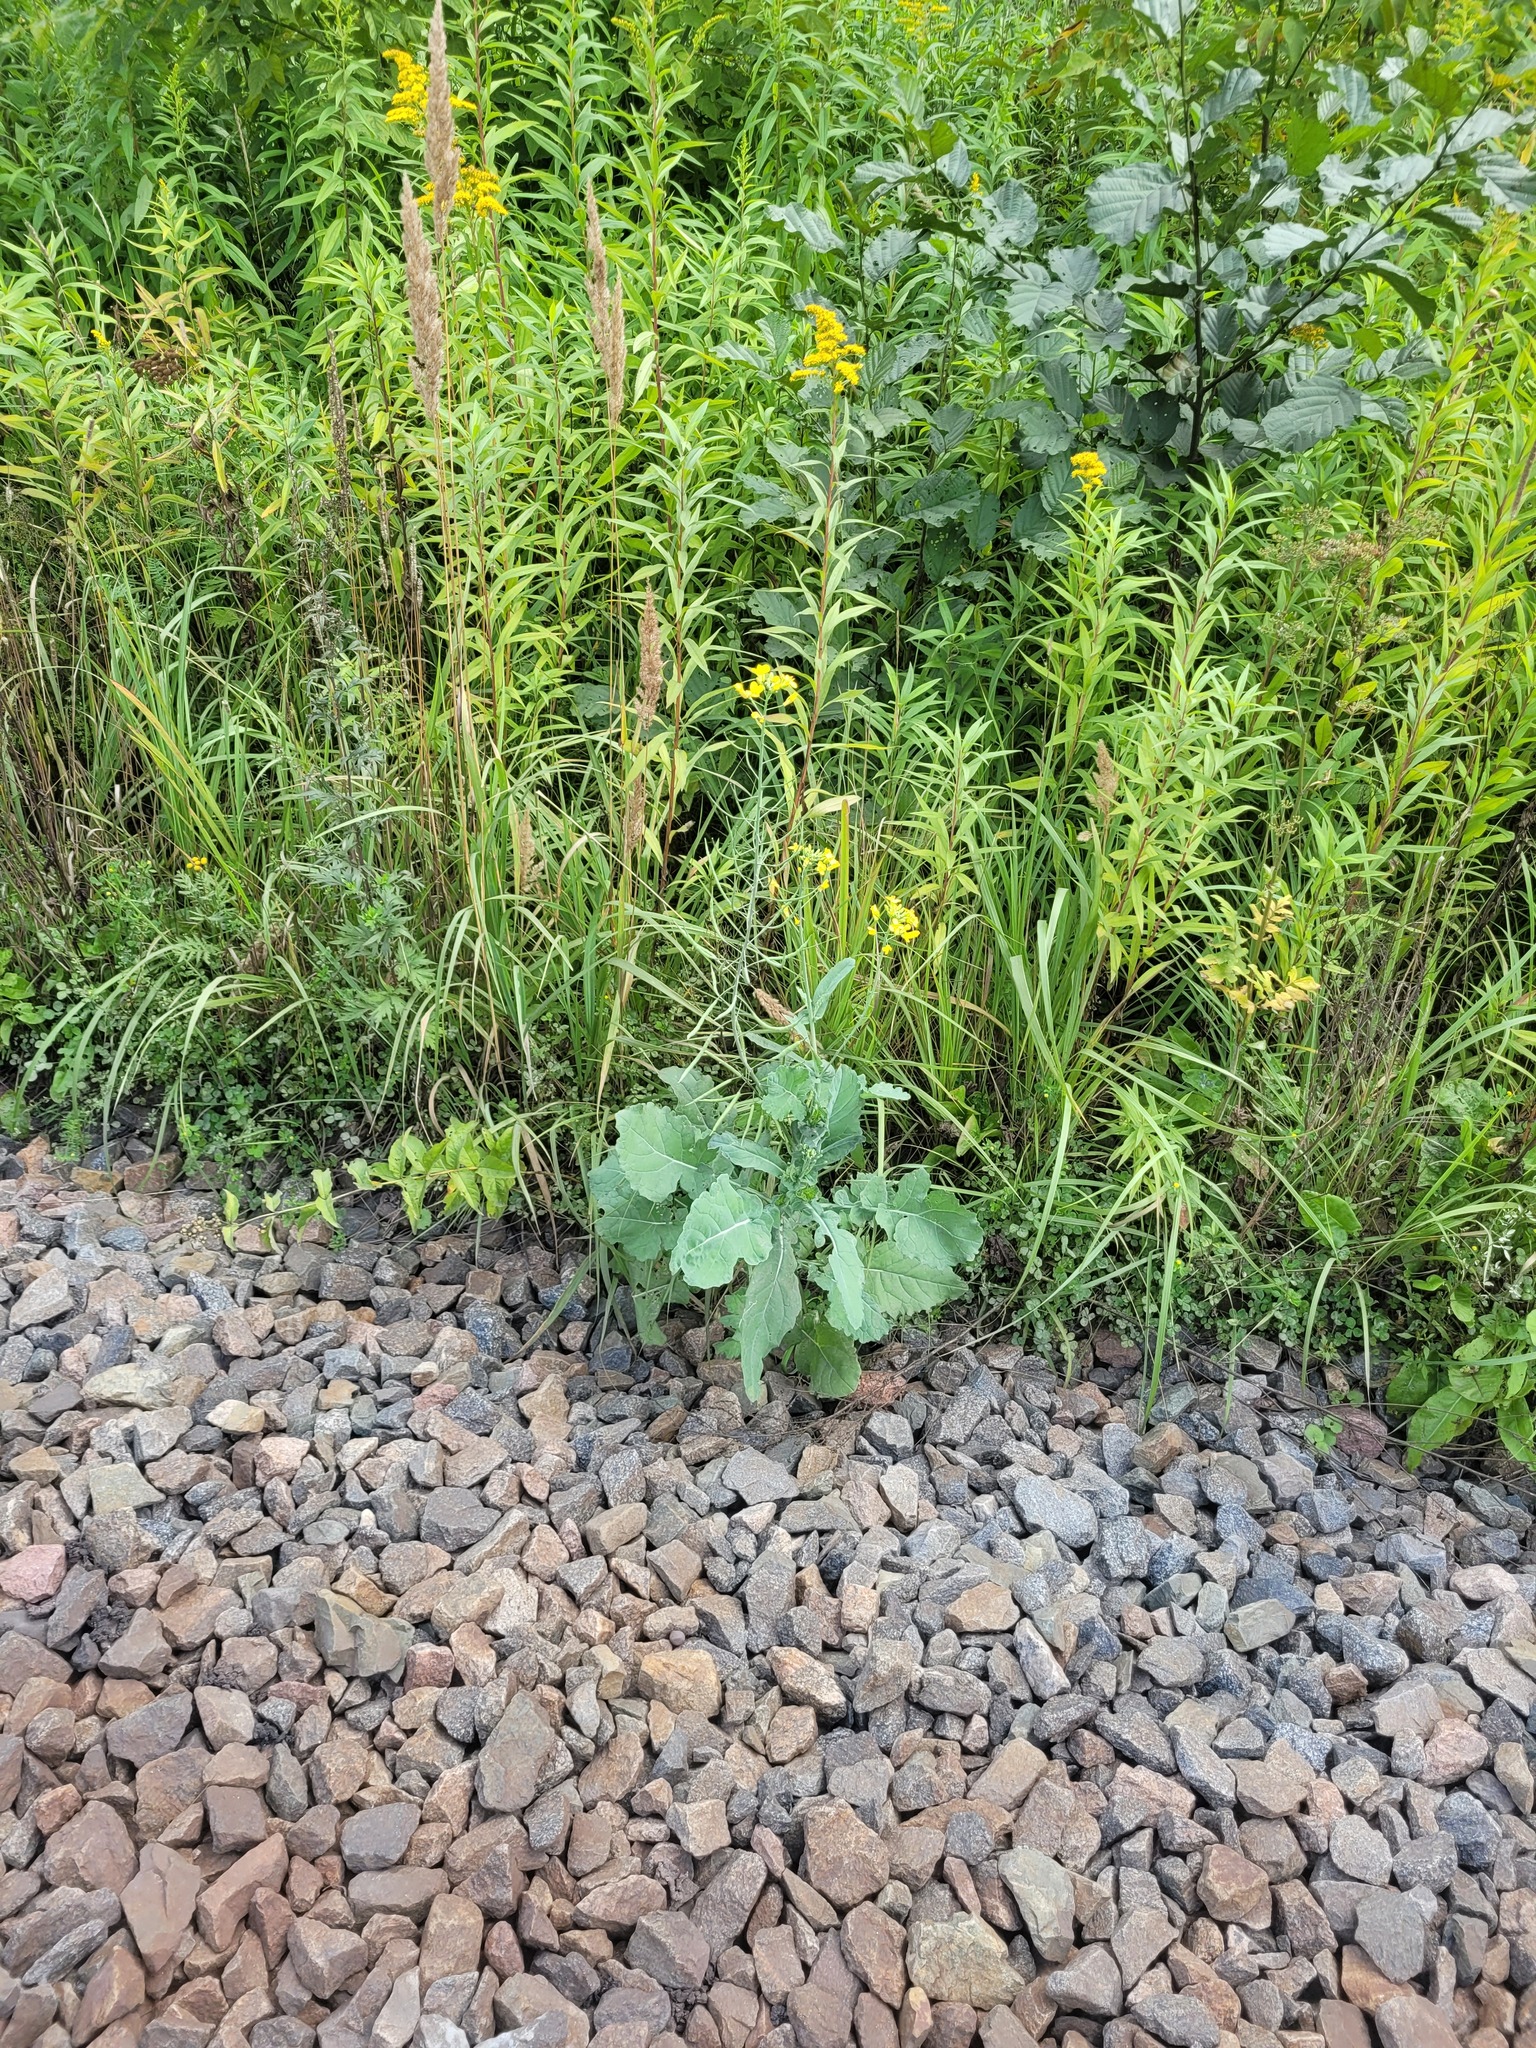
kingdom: Plantae
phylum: Tracheophyta
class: Magnoliopsida
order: Brassicales
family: Brassicaceae
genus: Brassica
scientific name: Brassica napus
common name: Rape
